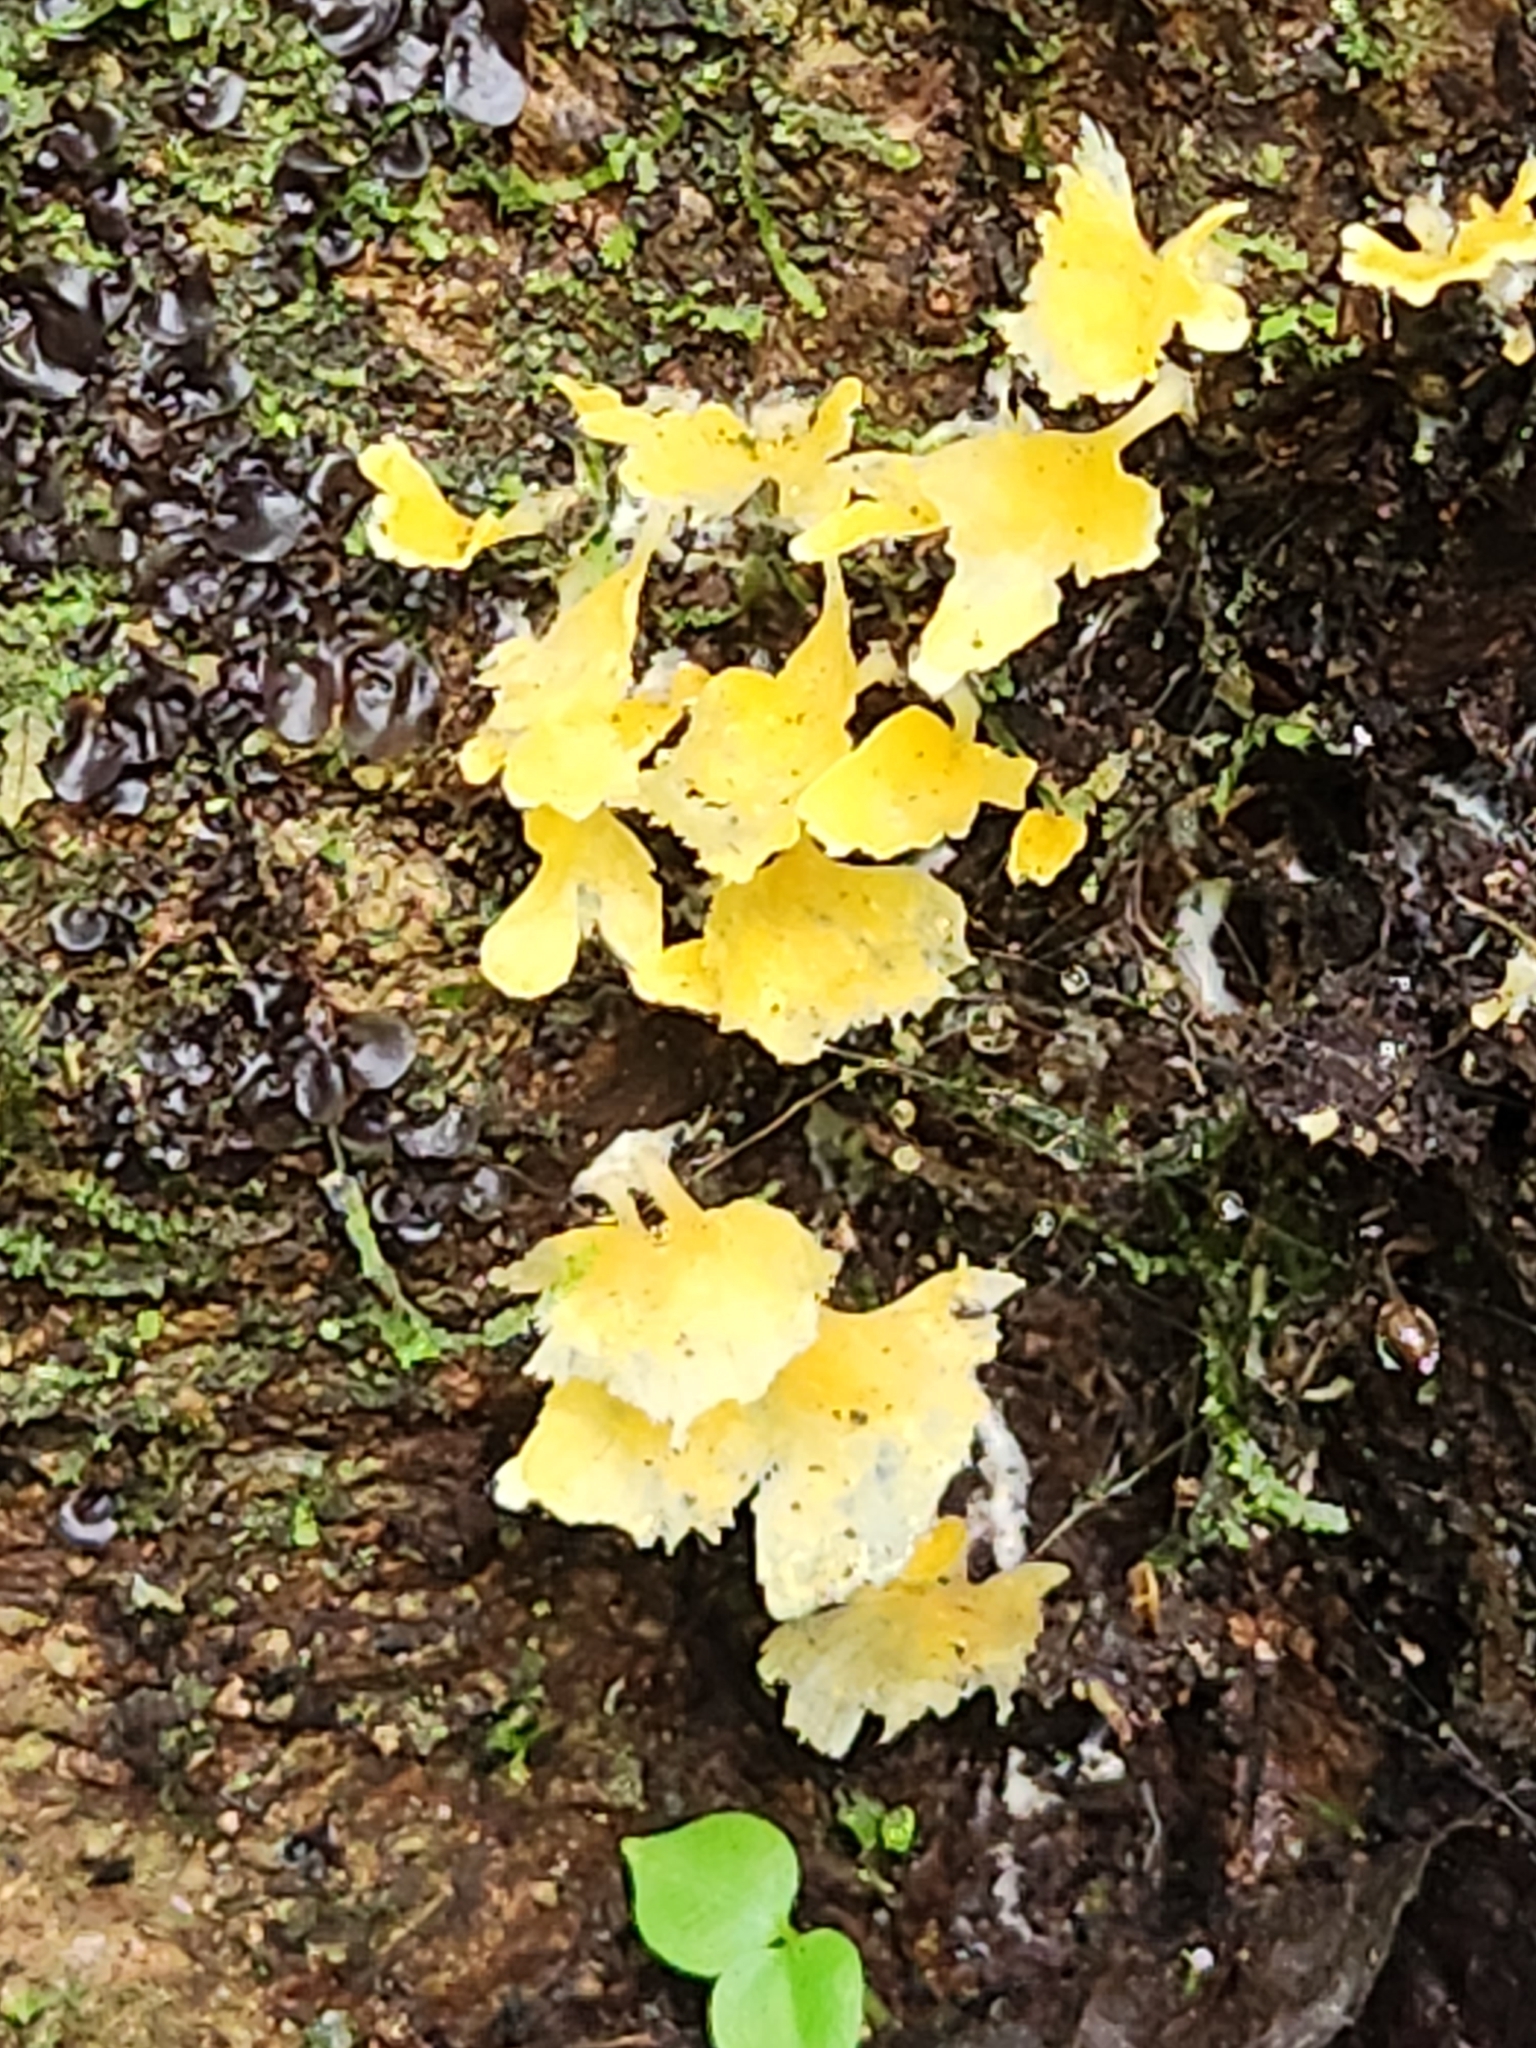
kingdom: Fungi
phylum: Basidiomycota
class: Agaricomycetes
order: Hymenochaetales
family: Rickenellaceae
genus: Cotylidia
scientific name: Cotylidia aurantiaca
